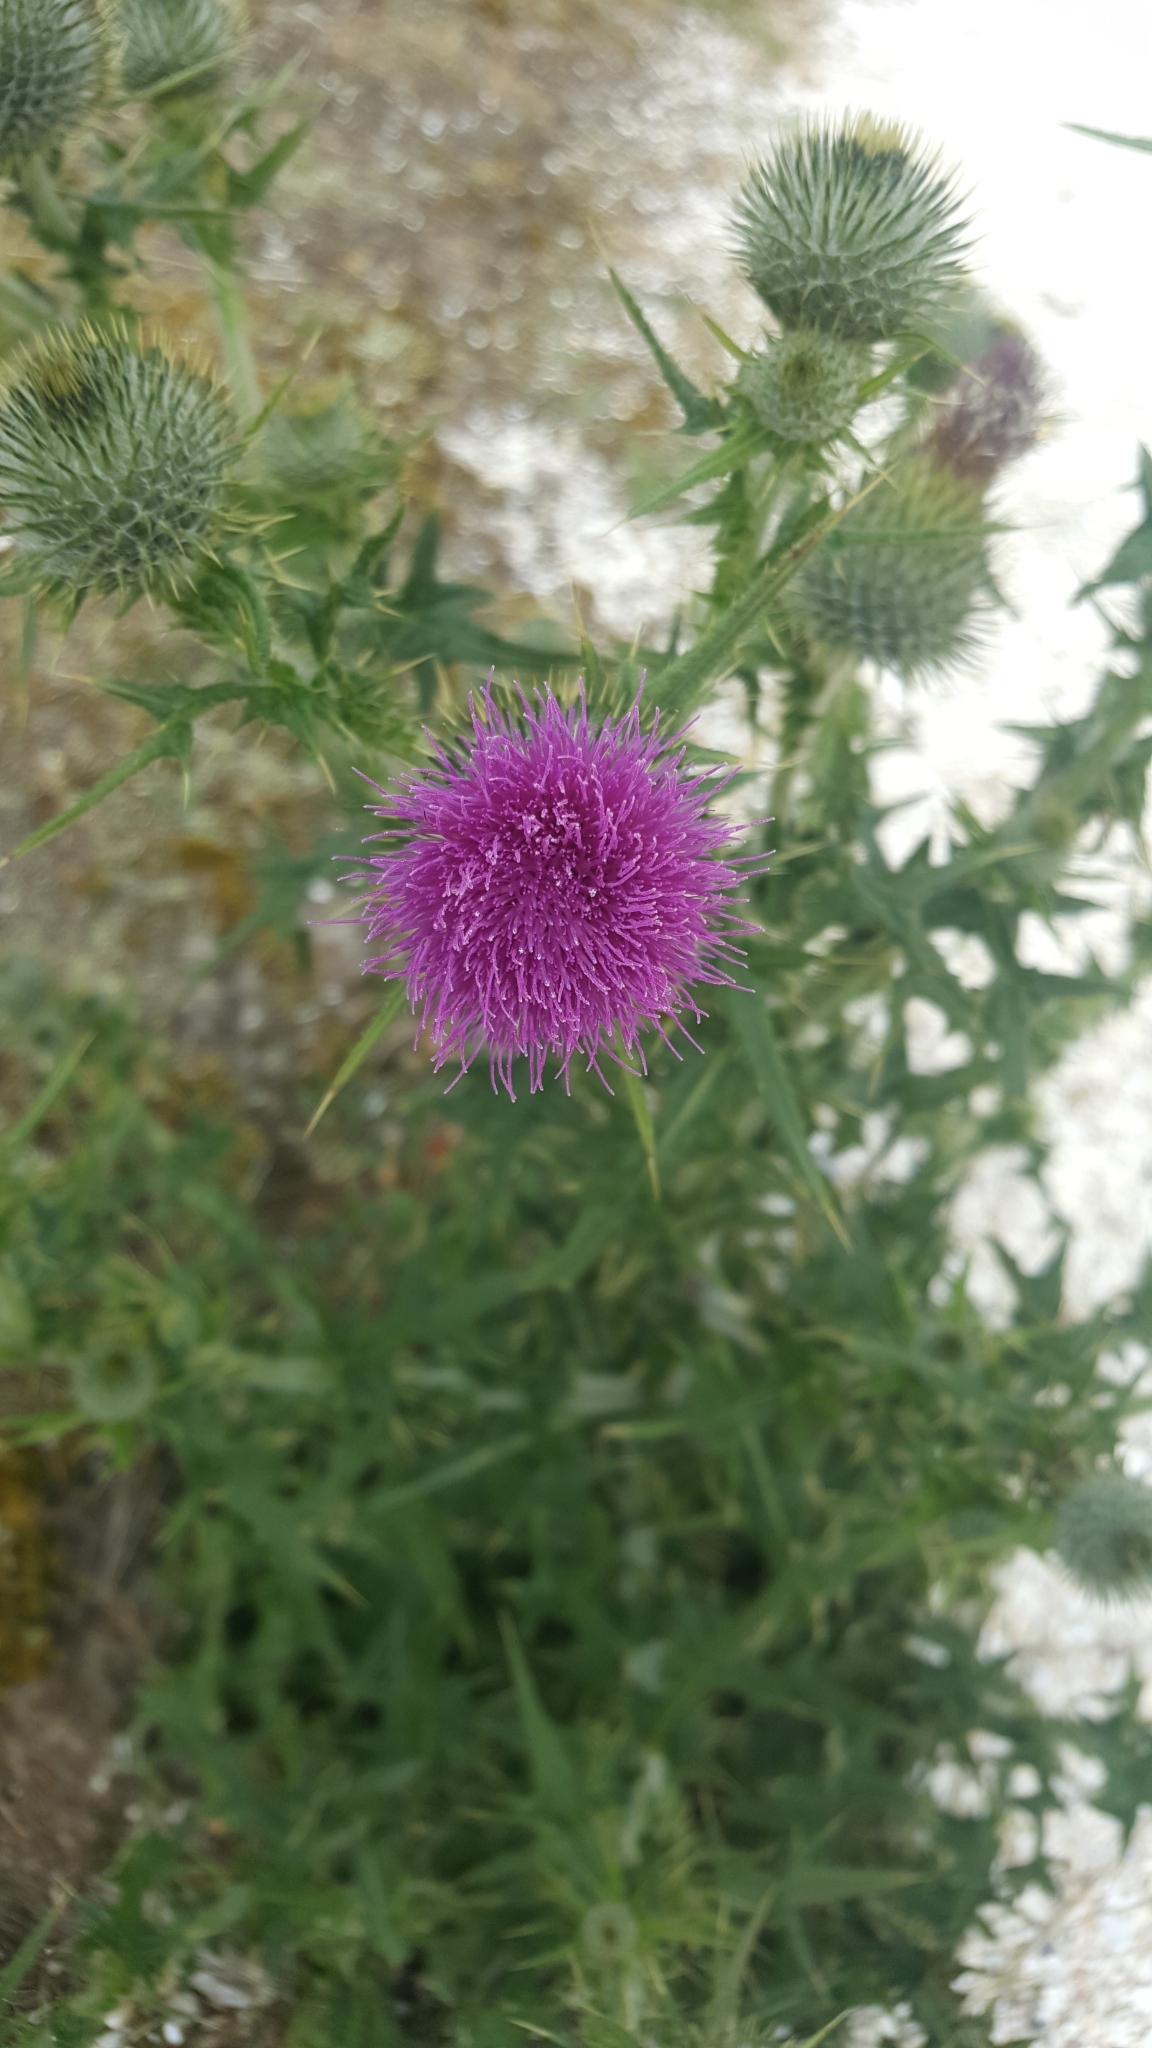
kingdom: Plantae
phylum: Tracheophyta
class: Magnoliopsida
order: Asterales
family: Asteraceae
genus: Cirsium
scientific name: Cirsium vulgare
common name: Bull thistle
